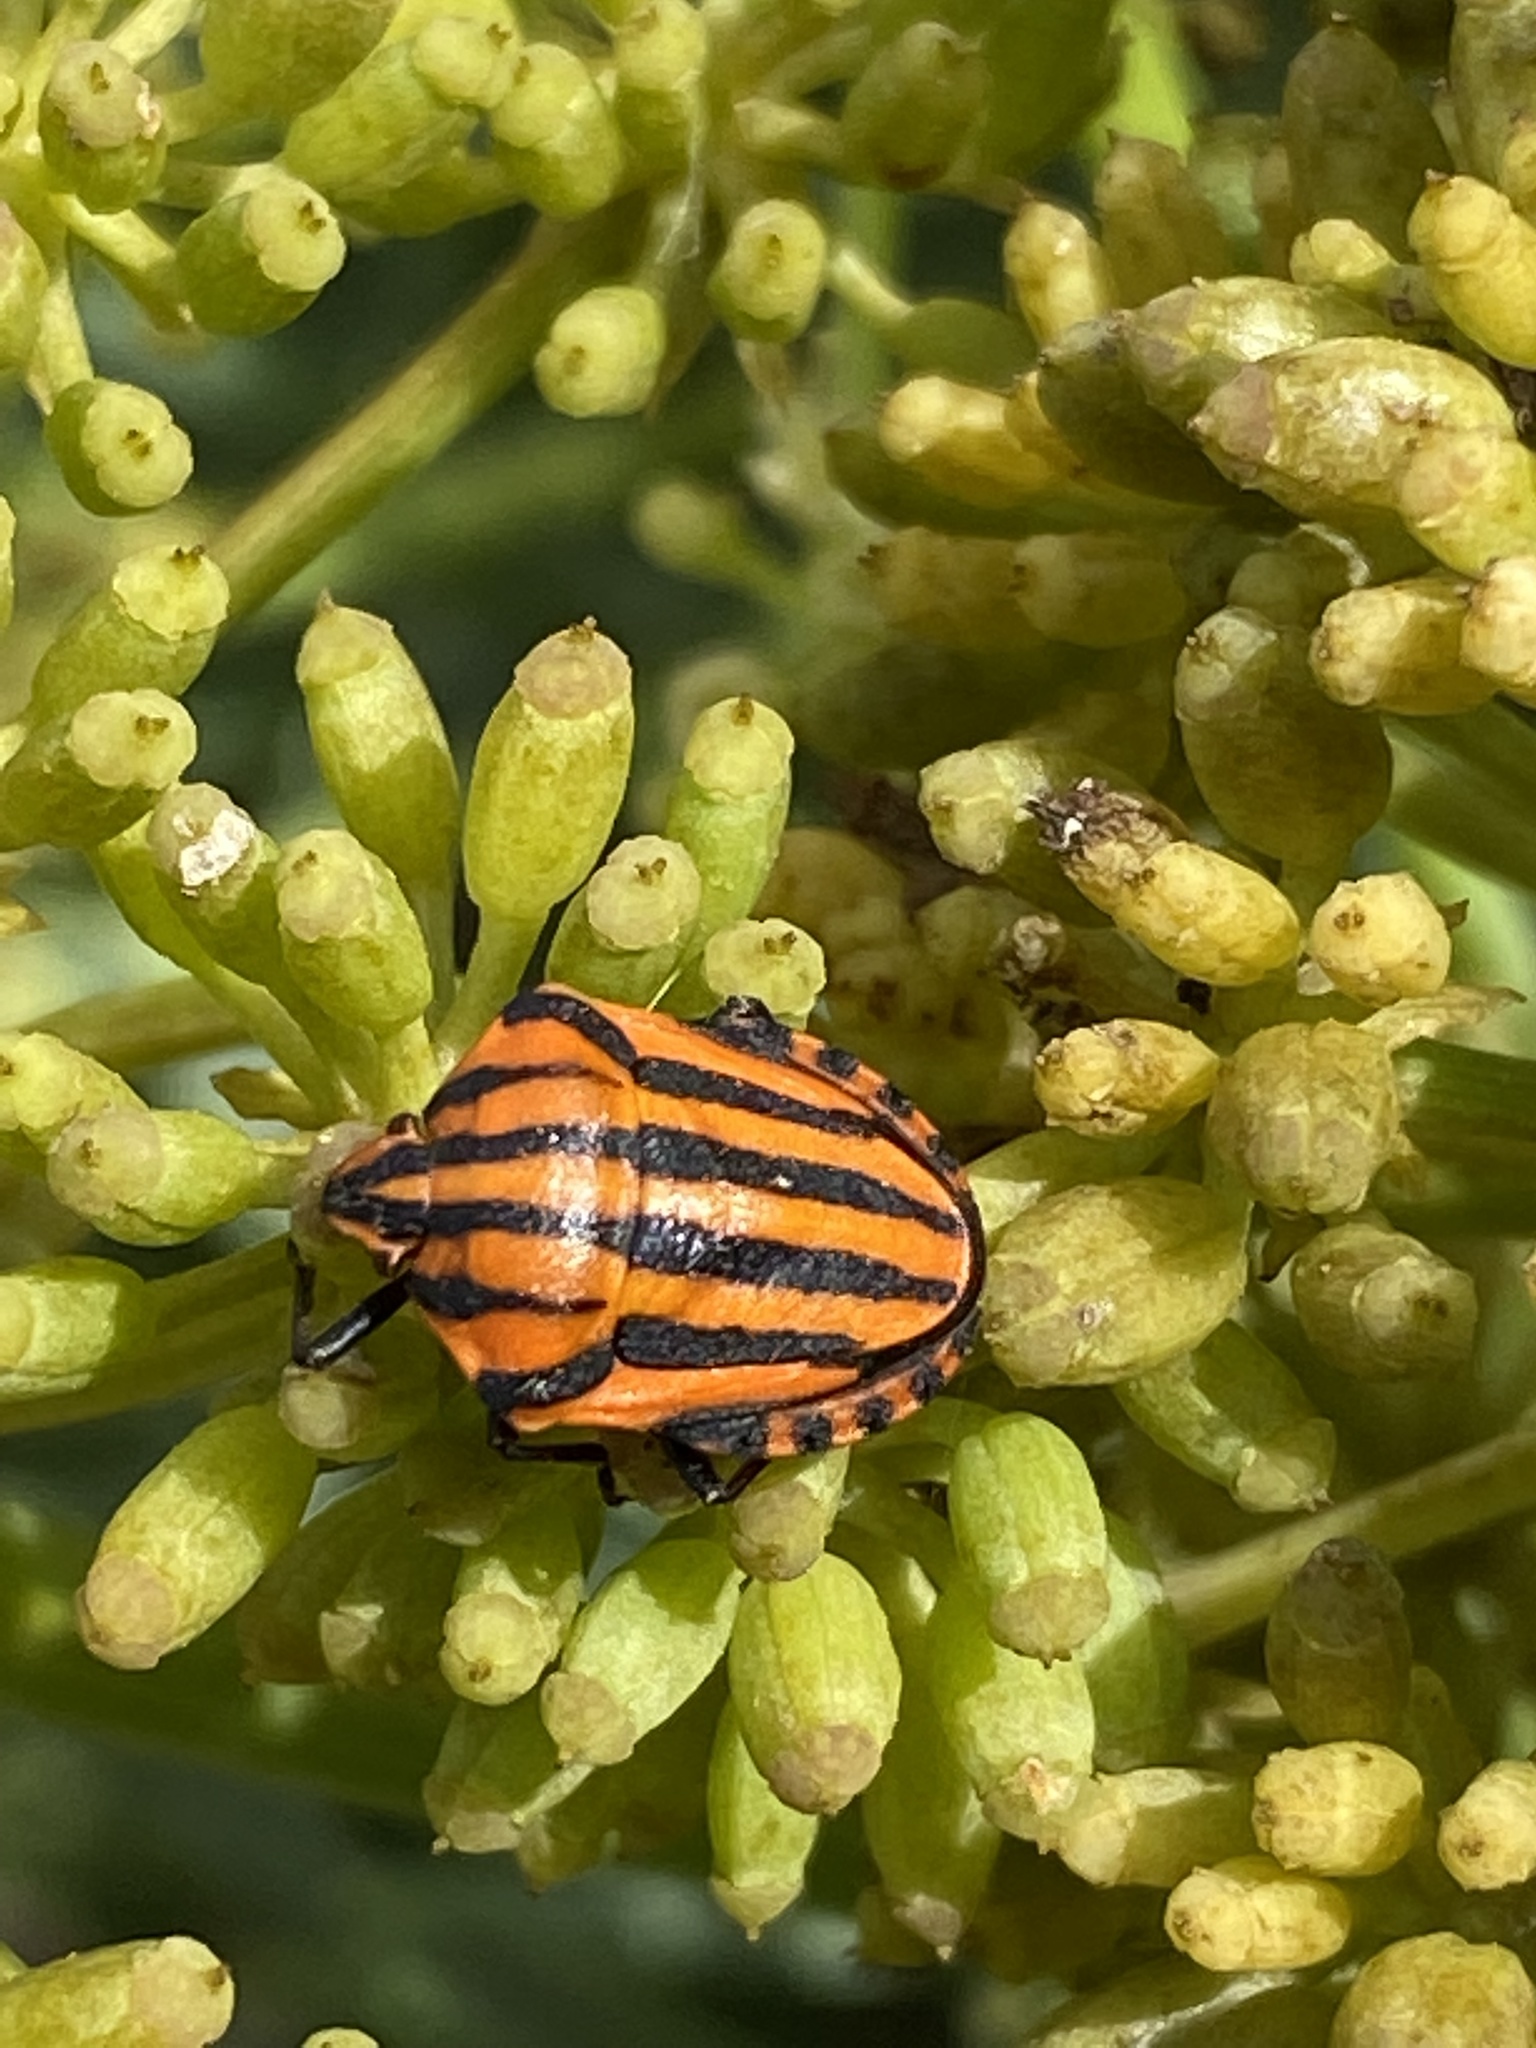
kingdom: Animalia
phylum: Arthropoda
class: Insecta
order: Hemiptera
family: Pentatomidae
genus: Graphosoma
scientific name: Graphosoma italicum
